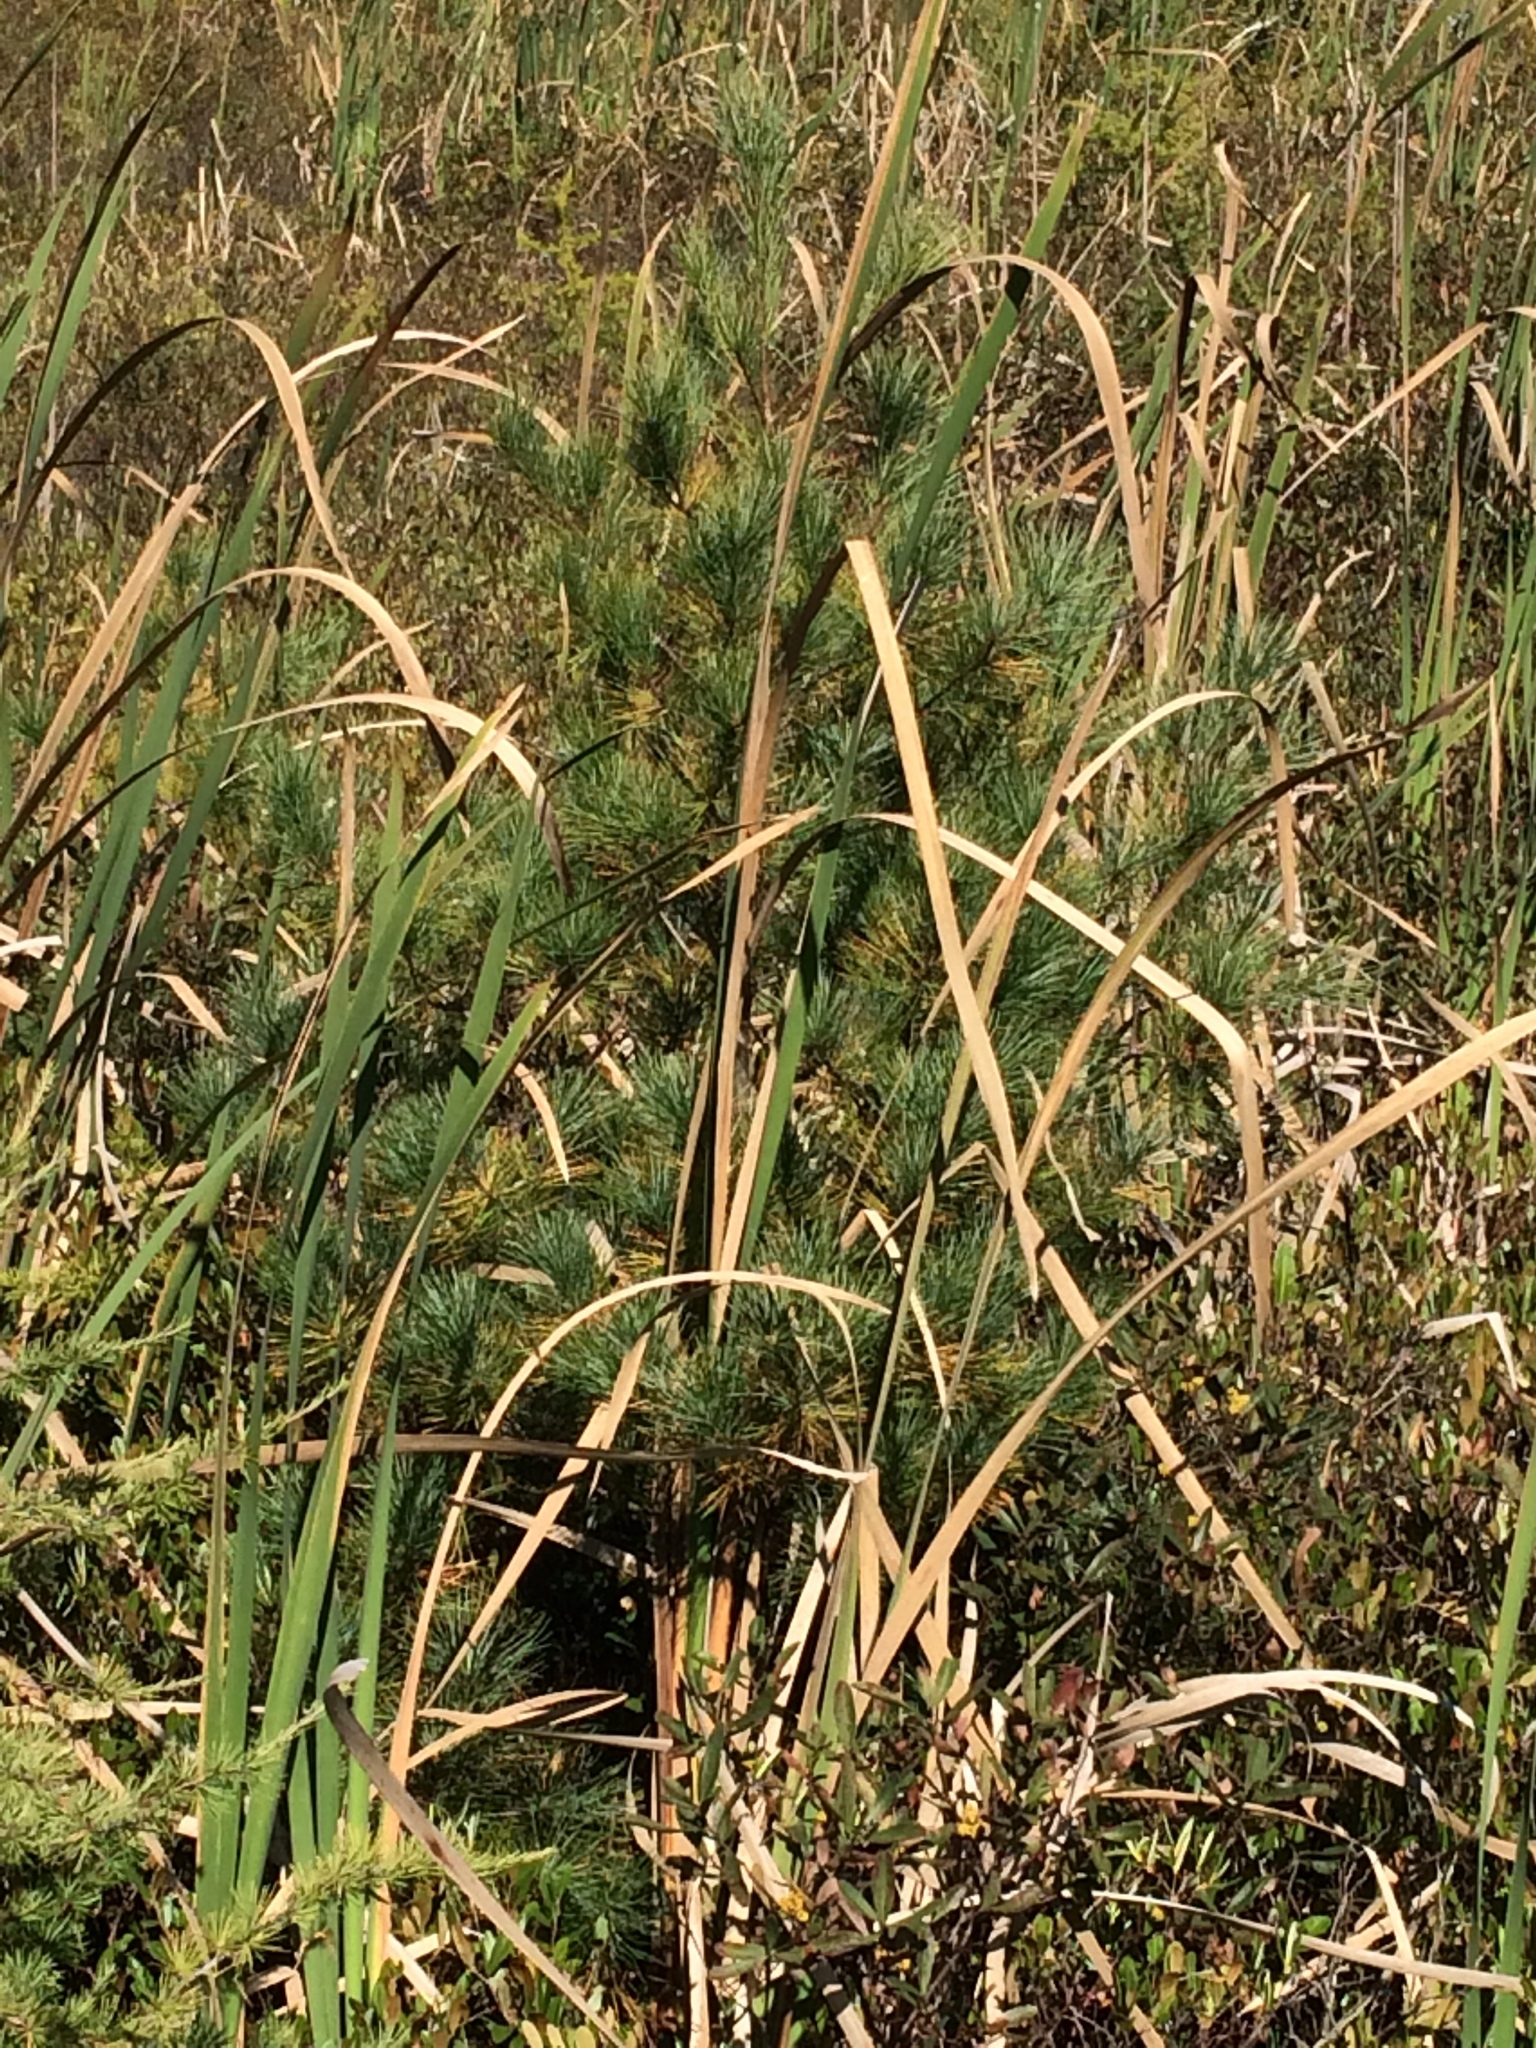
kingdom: Plantae
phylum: Tracheophyta
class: Pinopsida
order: Pinales
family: Pinaceae
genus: Pinus
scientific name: Pinus strobus
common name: Weymouth pine
